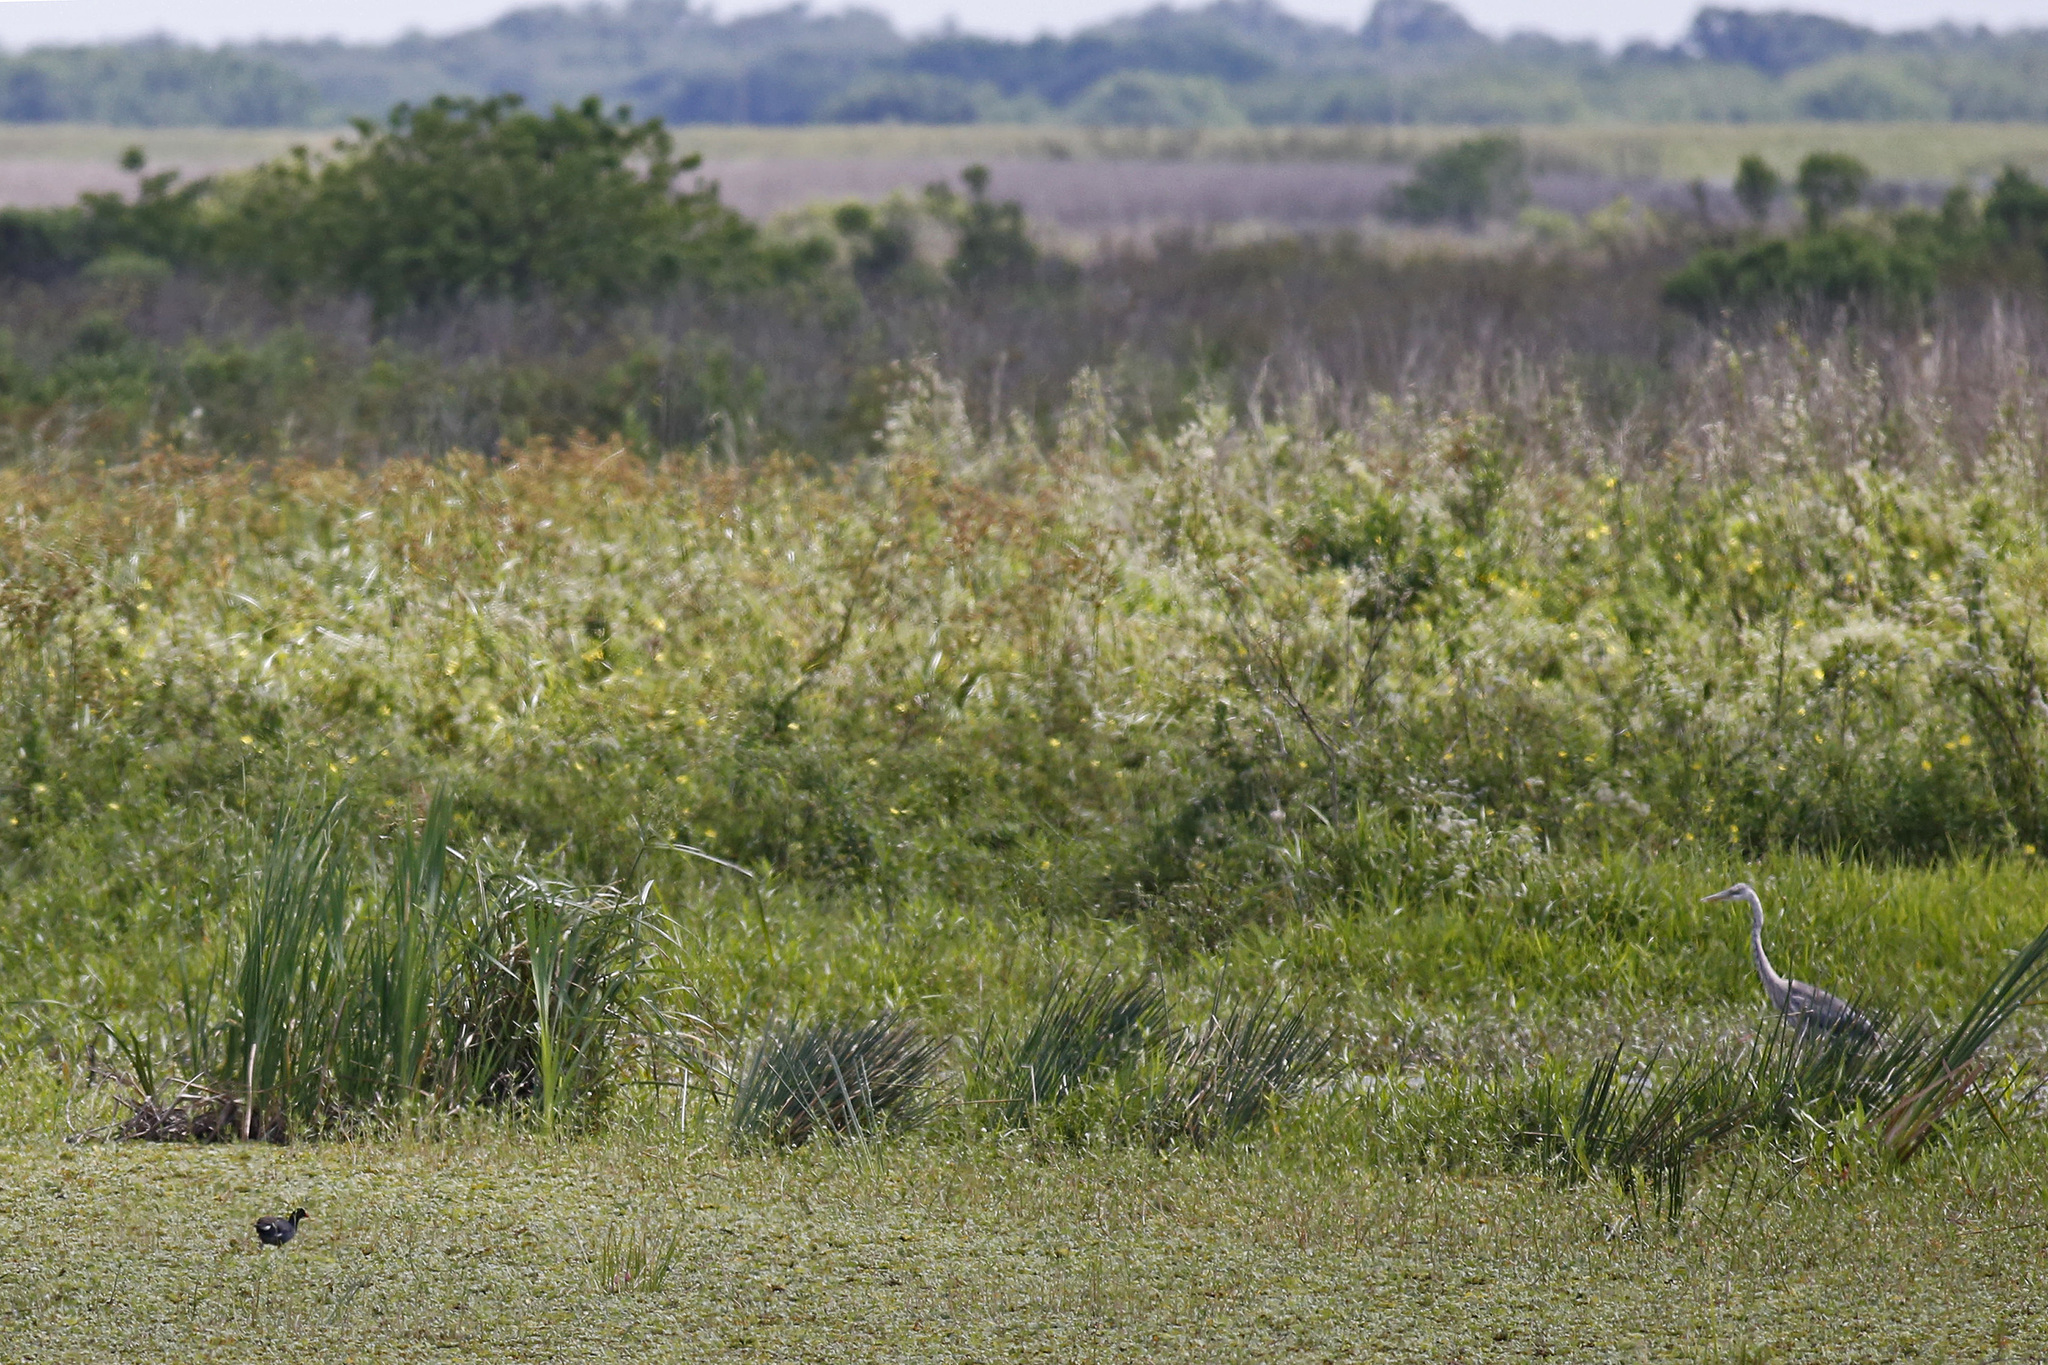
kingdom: Animalia
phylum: Chordata
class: Aves
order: Pelecaniformes
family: Ardeidae
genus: Ardea
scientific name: Ardea herodias
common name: Great blue heron
